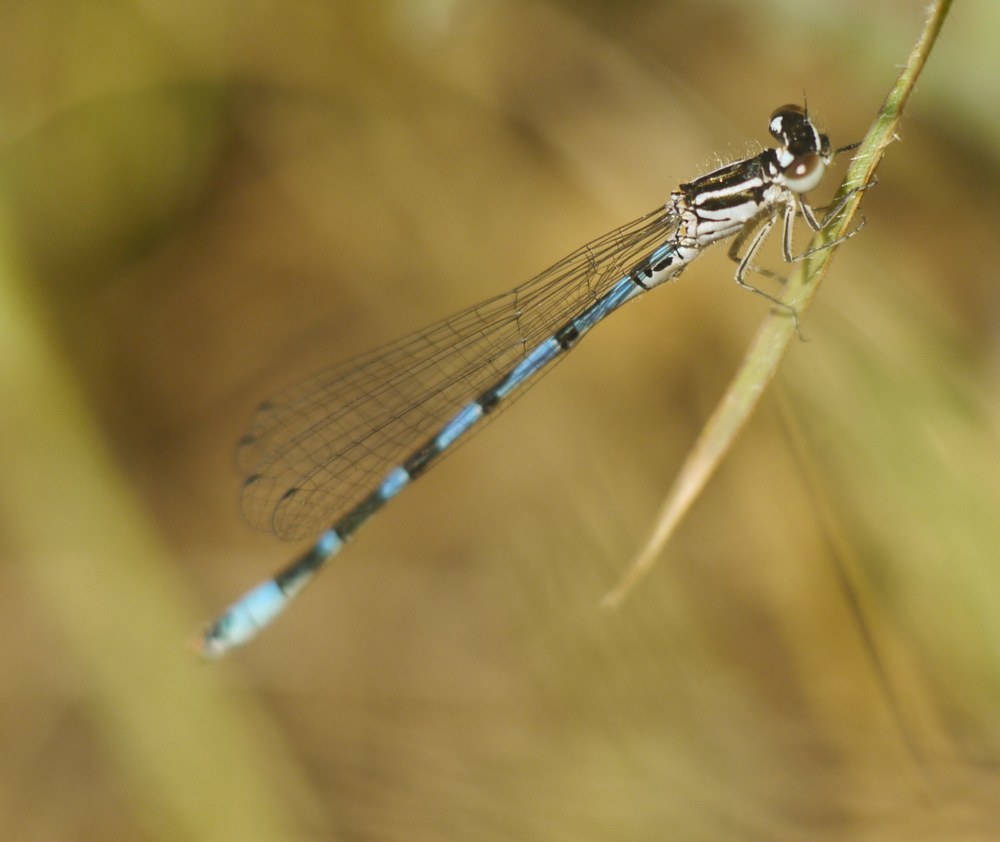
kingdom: Animalia
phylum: Arthropoda
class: Insecta
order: Odonata
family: Coenagrionidae
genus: Coenagrion
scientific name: Coenagrion ornatum
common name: Ornate bluet
